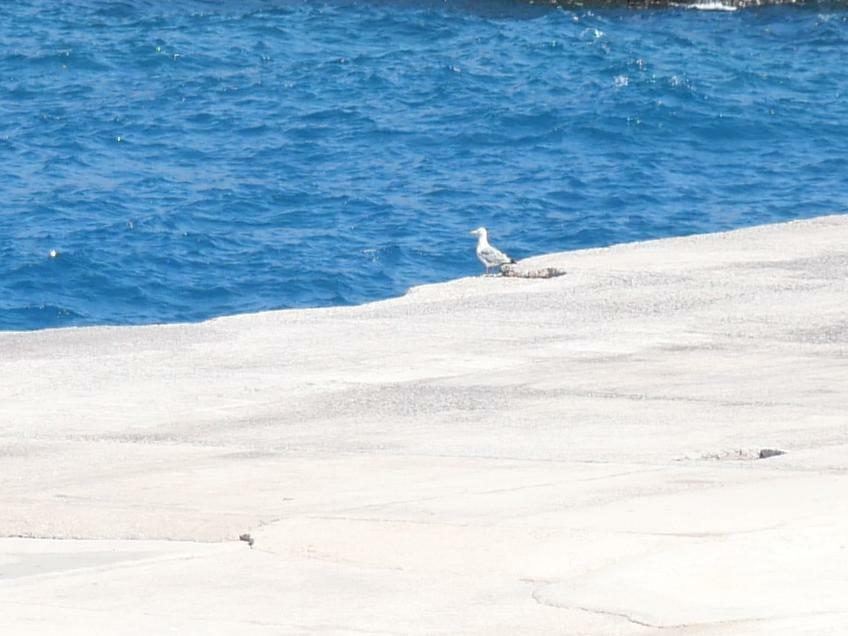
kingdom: Animalia
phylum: Chordata
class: Aves
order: Charadriiformes
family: Laridae
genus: Larus
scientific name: Larus michahellis
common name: Yellow-legged gull
